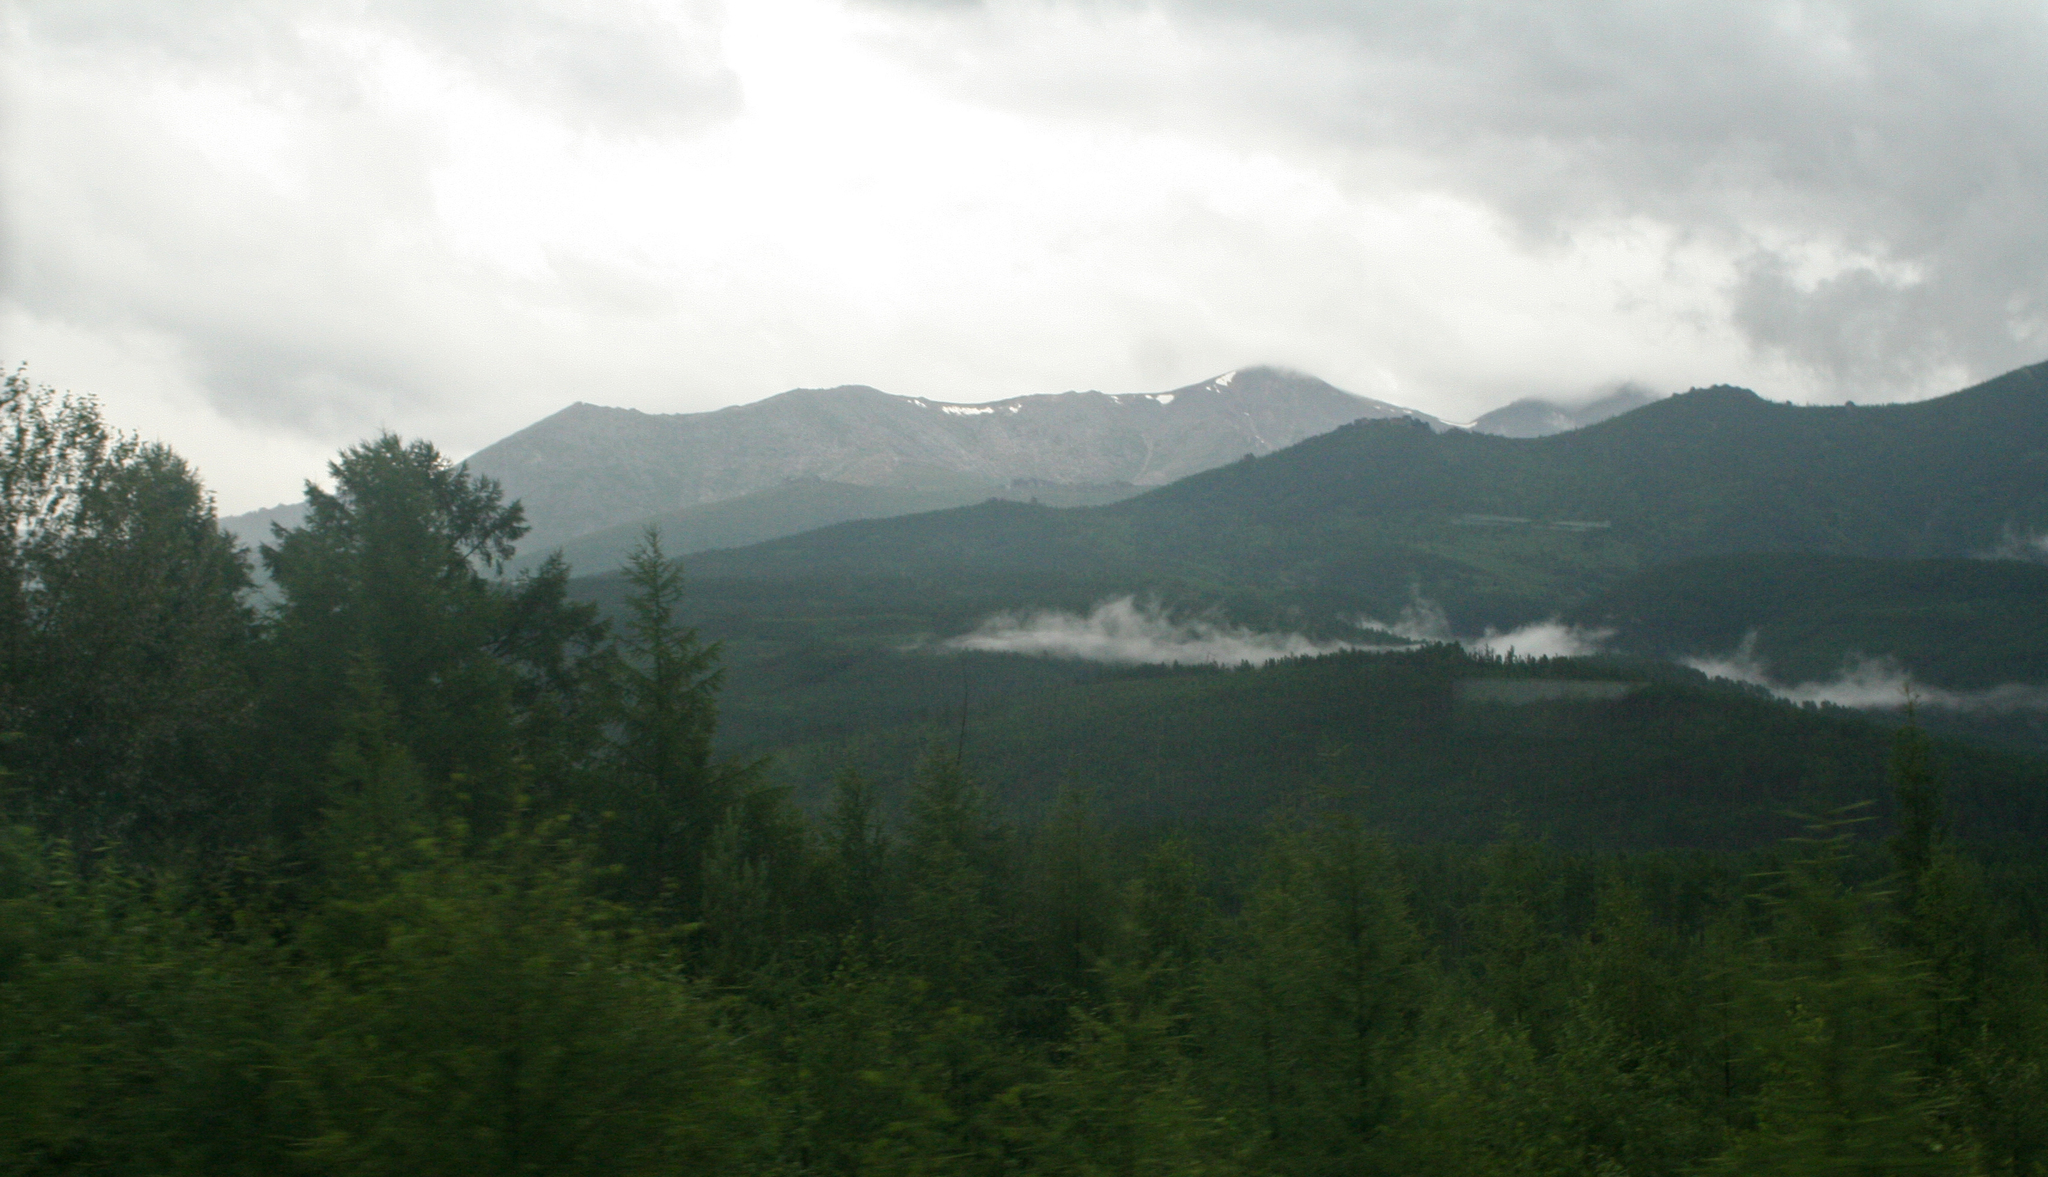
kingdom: Plantae
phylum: Tracheophyta
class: Pinopsida
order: Pinales
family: Pinaceae
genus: Larix
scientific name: Larix gmelinii
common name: Dahurian larch
